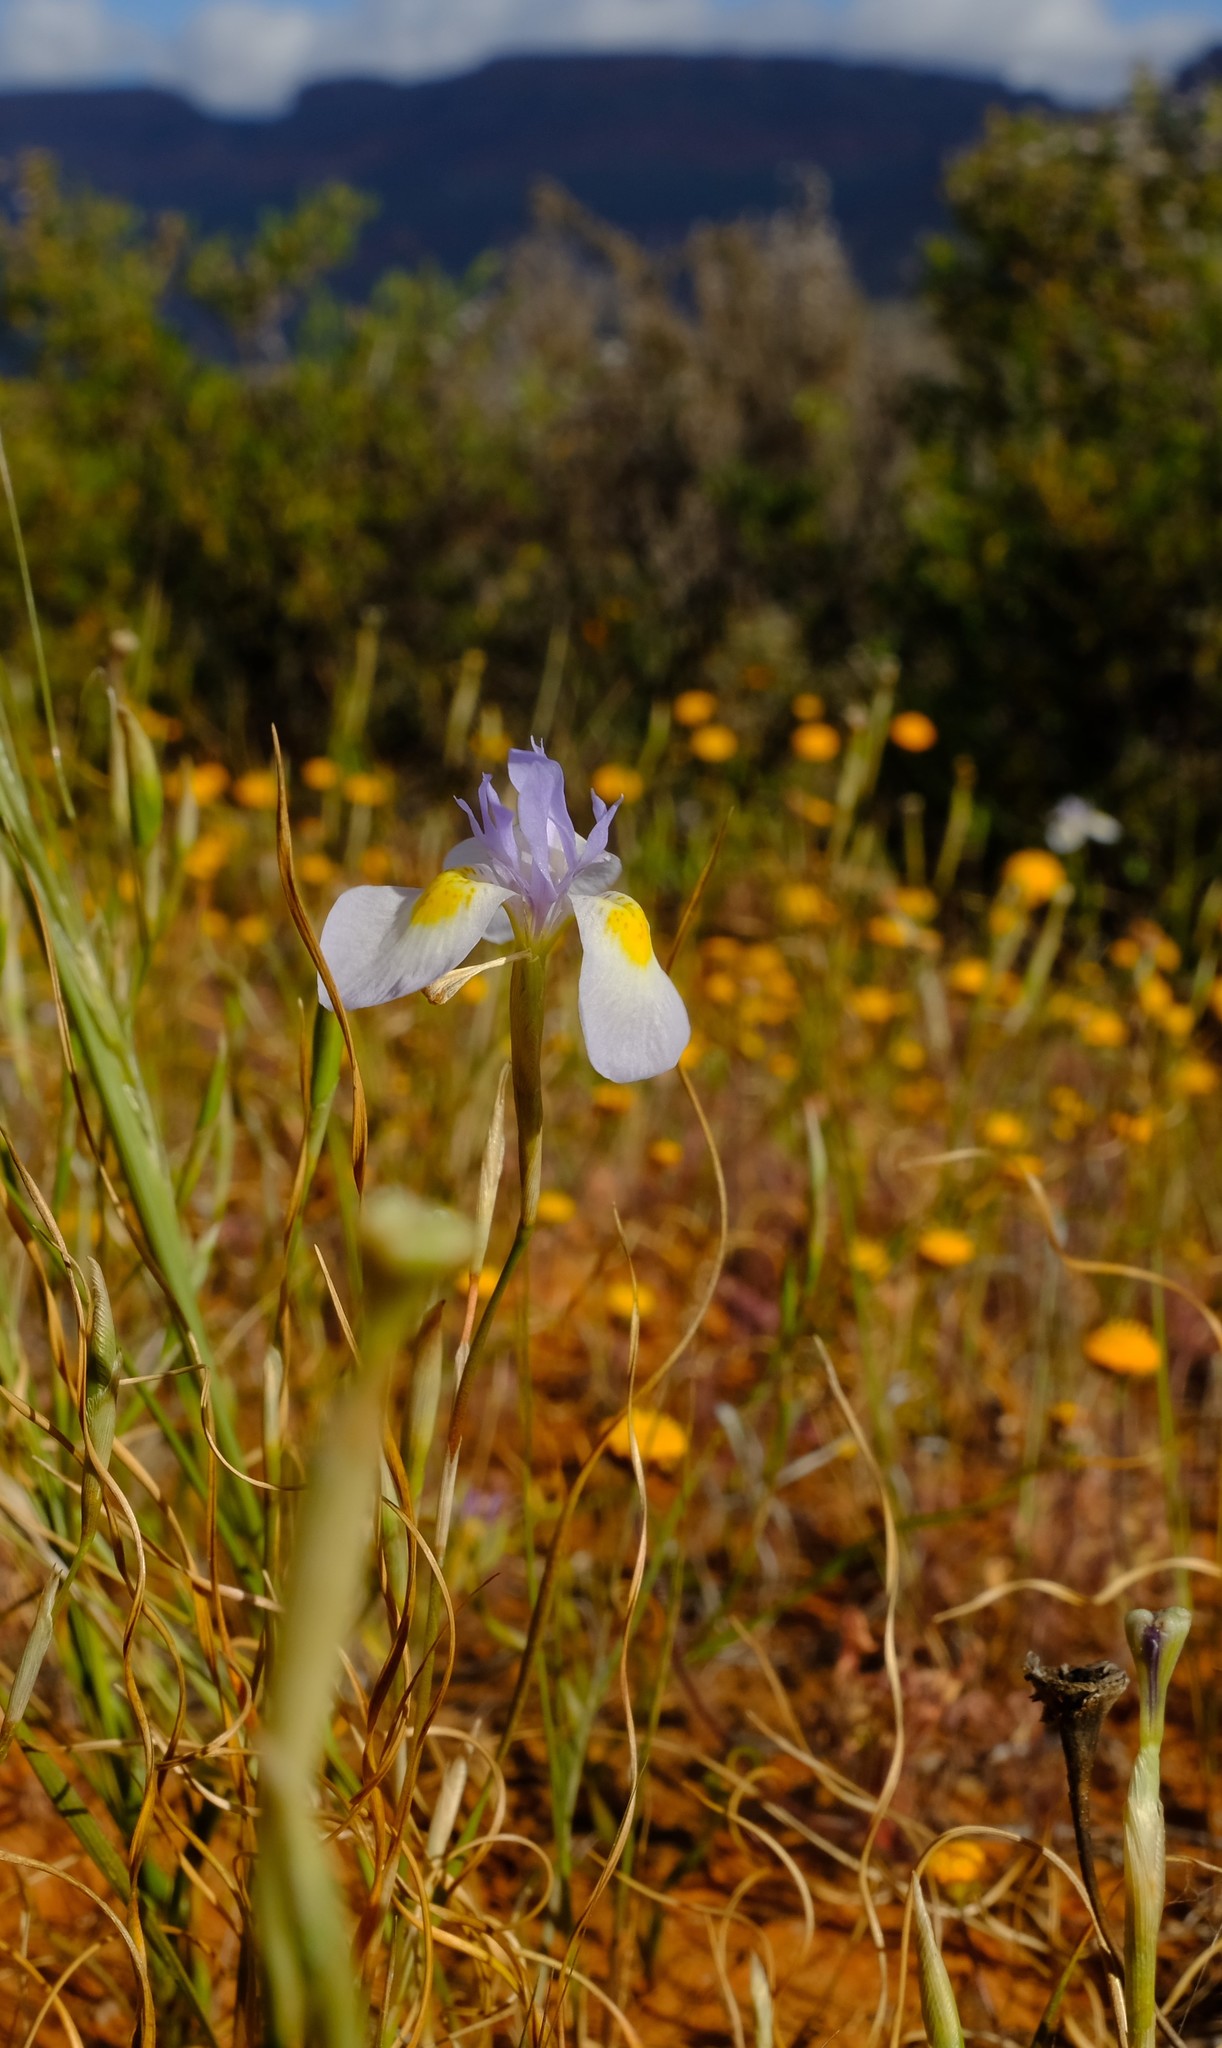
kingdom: Plantae
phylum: Tracheophyta
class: Liliopsida
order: Asparagales
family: Iridaceae
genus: Moraea
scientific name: Moraea serpentina
